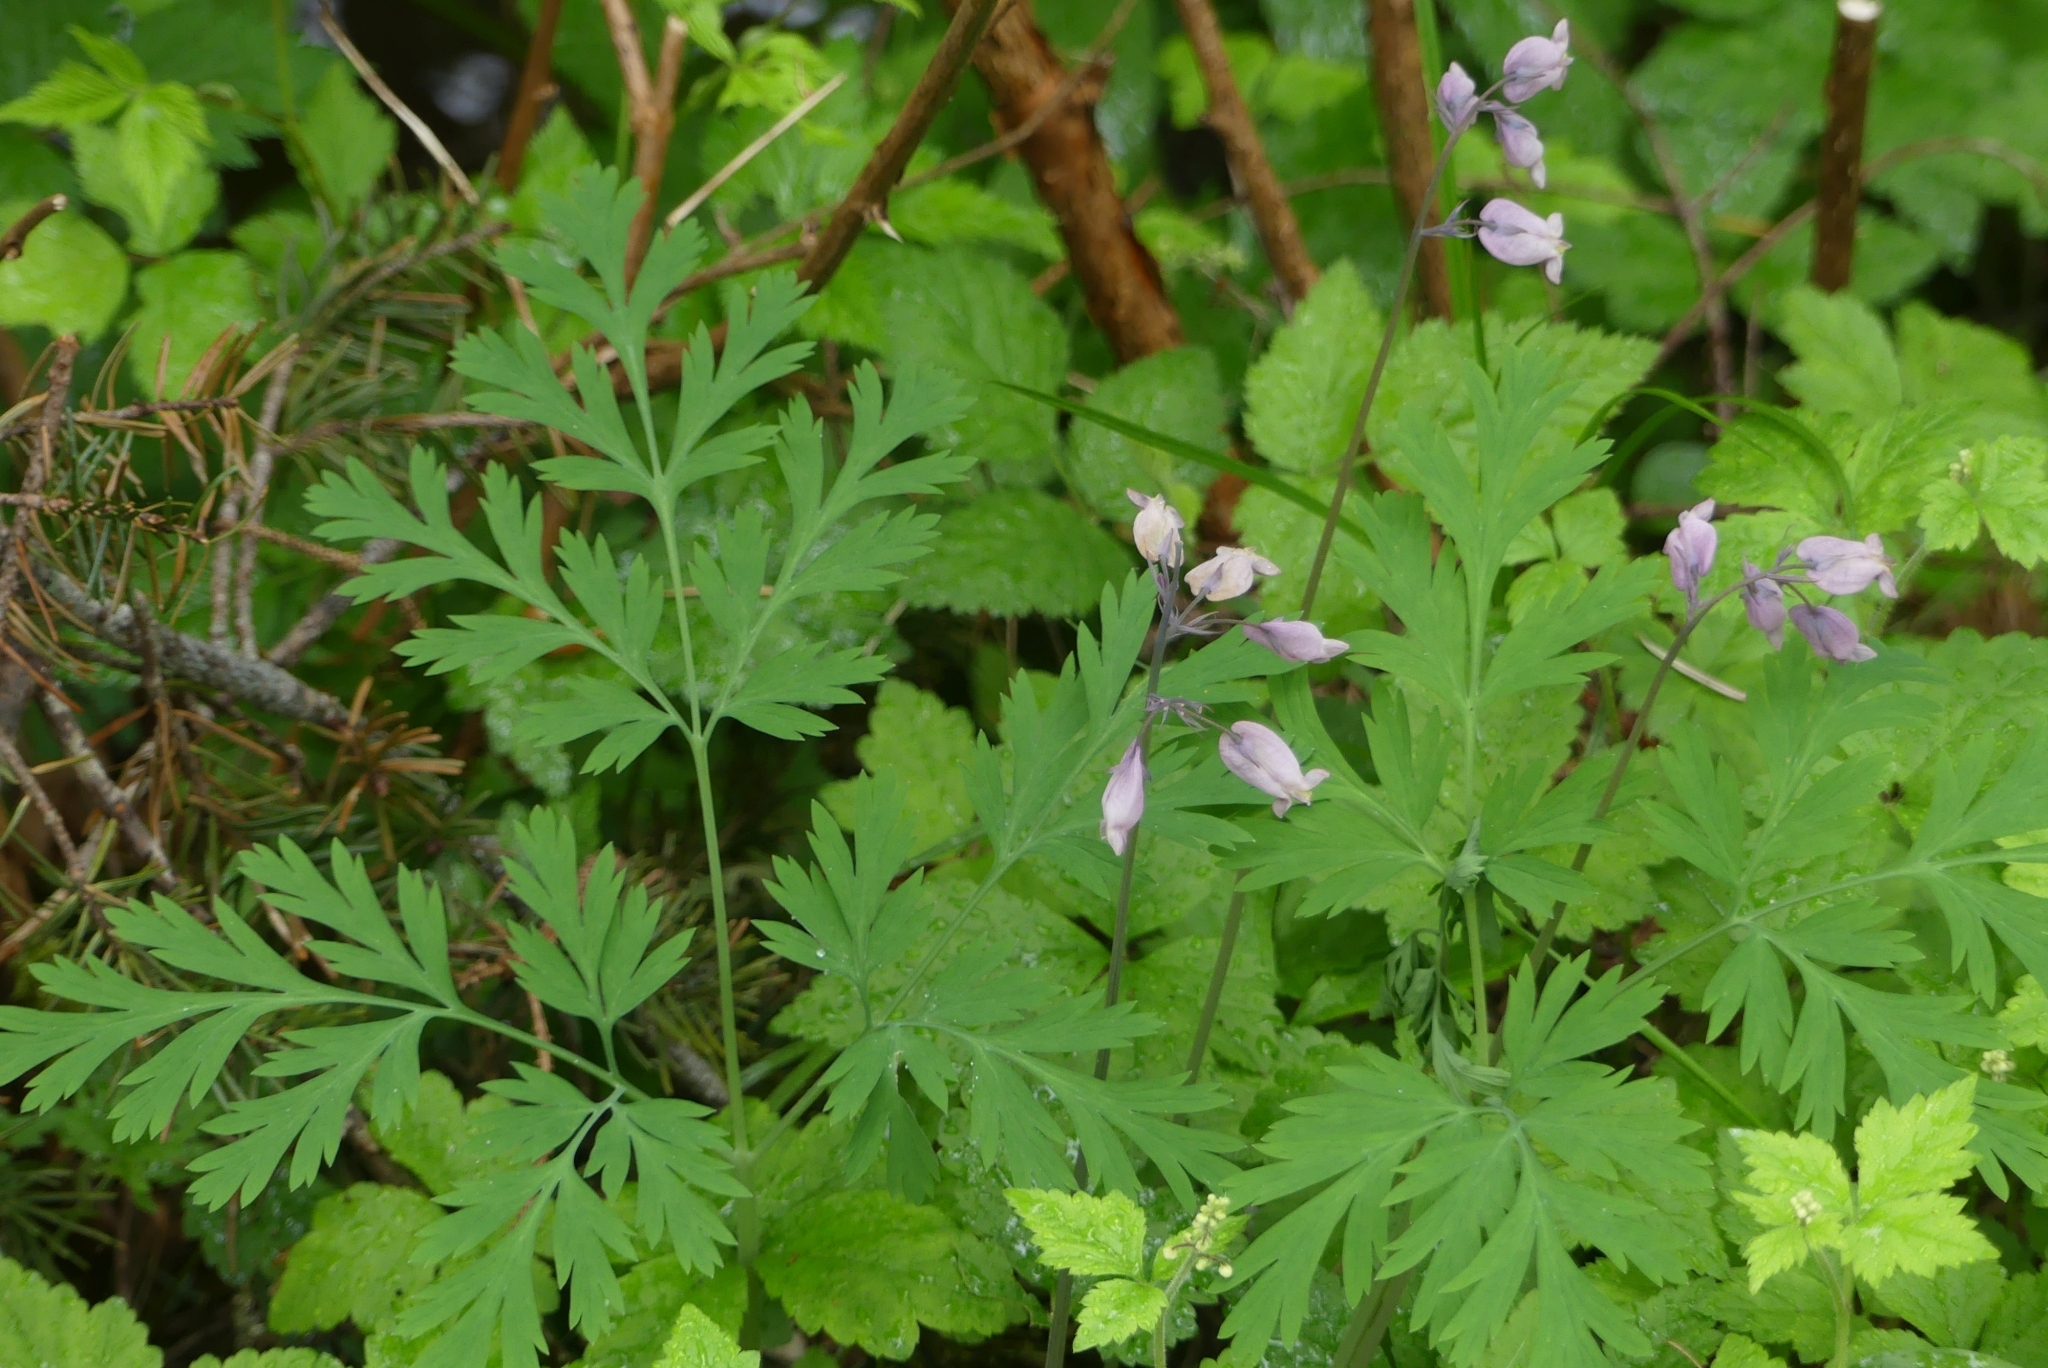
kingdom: Plantae
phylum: Tracheophyta
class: Magnoliopsida
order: Ranunculales
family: Papaveraceae
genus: Dicentra
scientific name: Dicentra formosa
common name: Bleeding-heart
